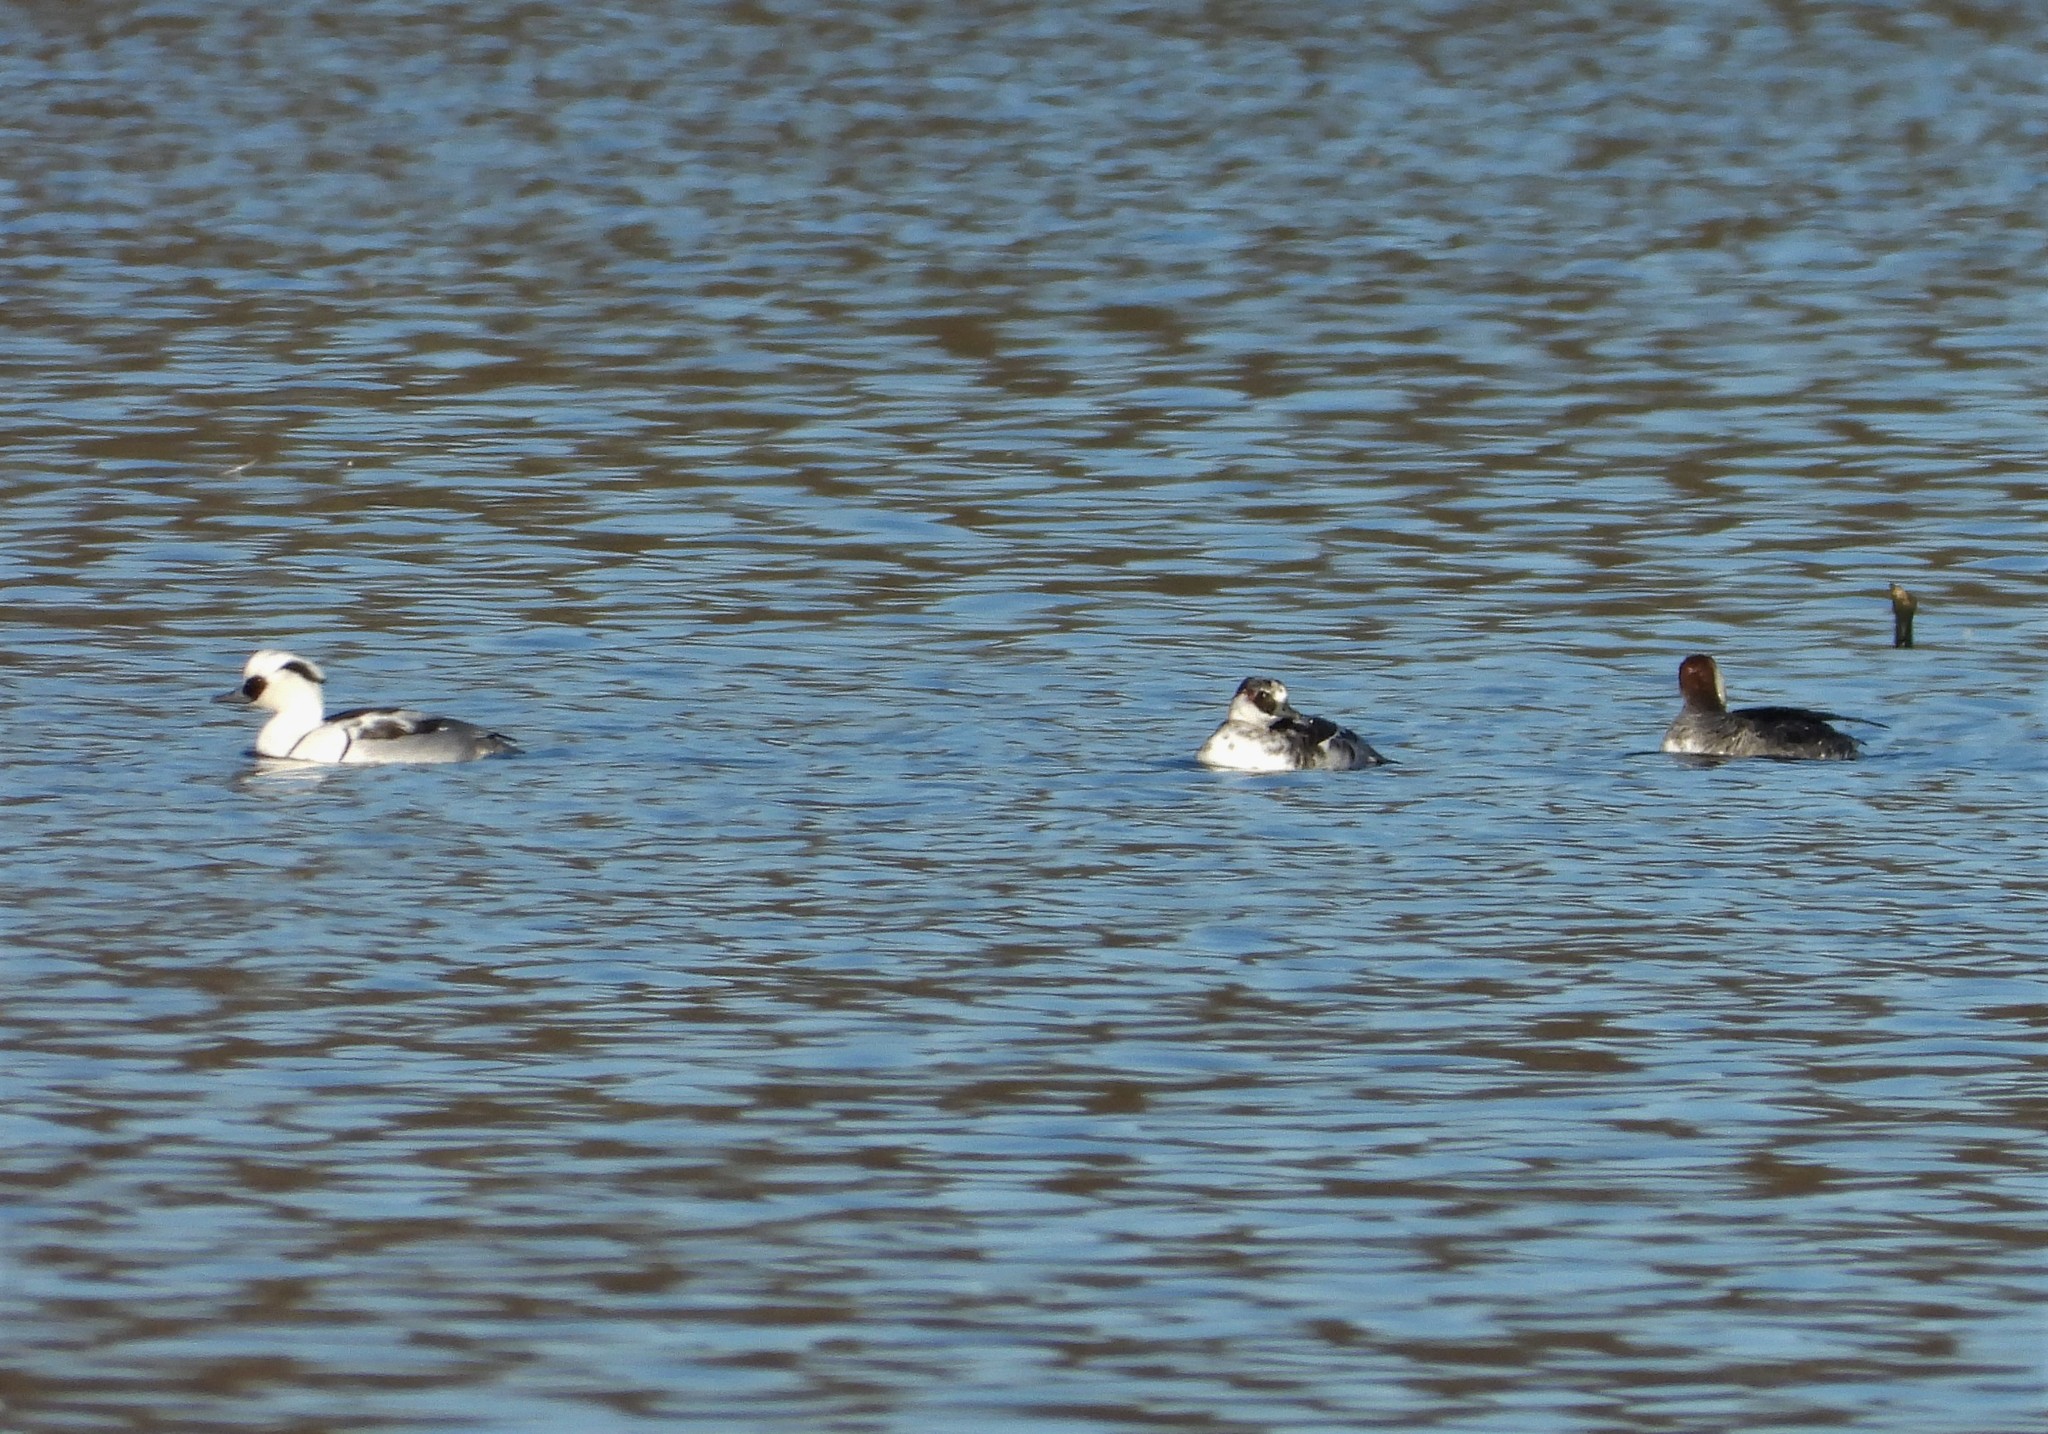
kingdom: Animalia
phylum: Chordata
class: Aves
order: Anseriformes
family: Anatidae
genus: Mergellus
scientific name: Mergellus albellus
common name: Smew
